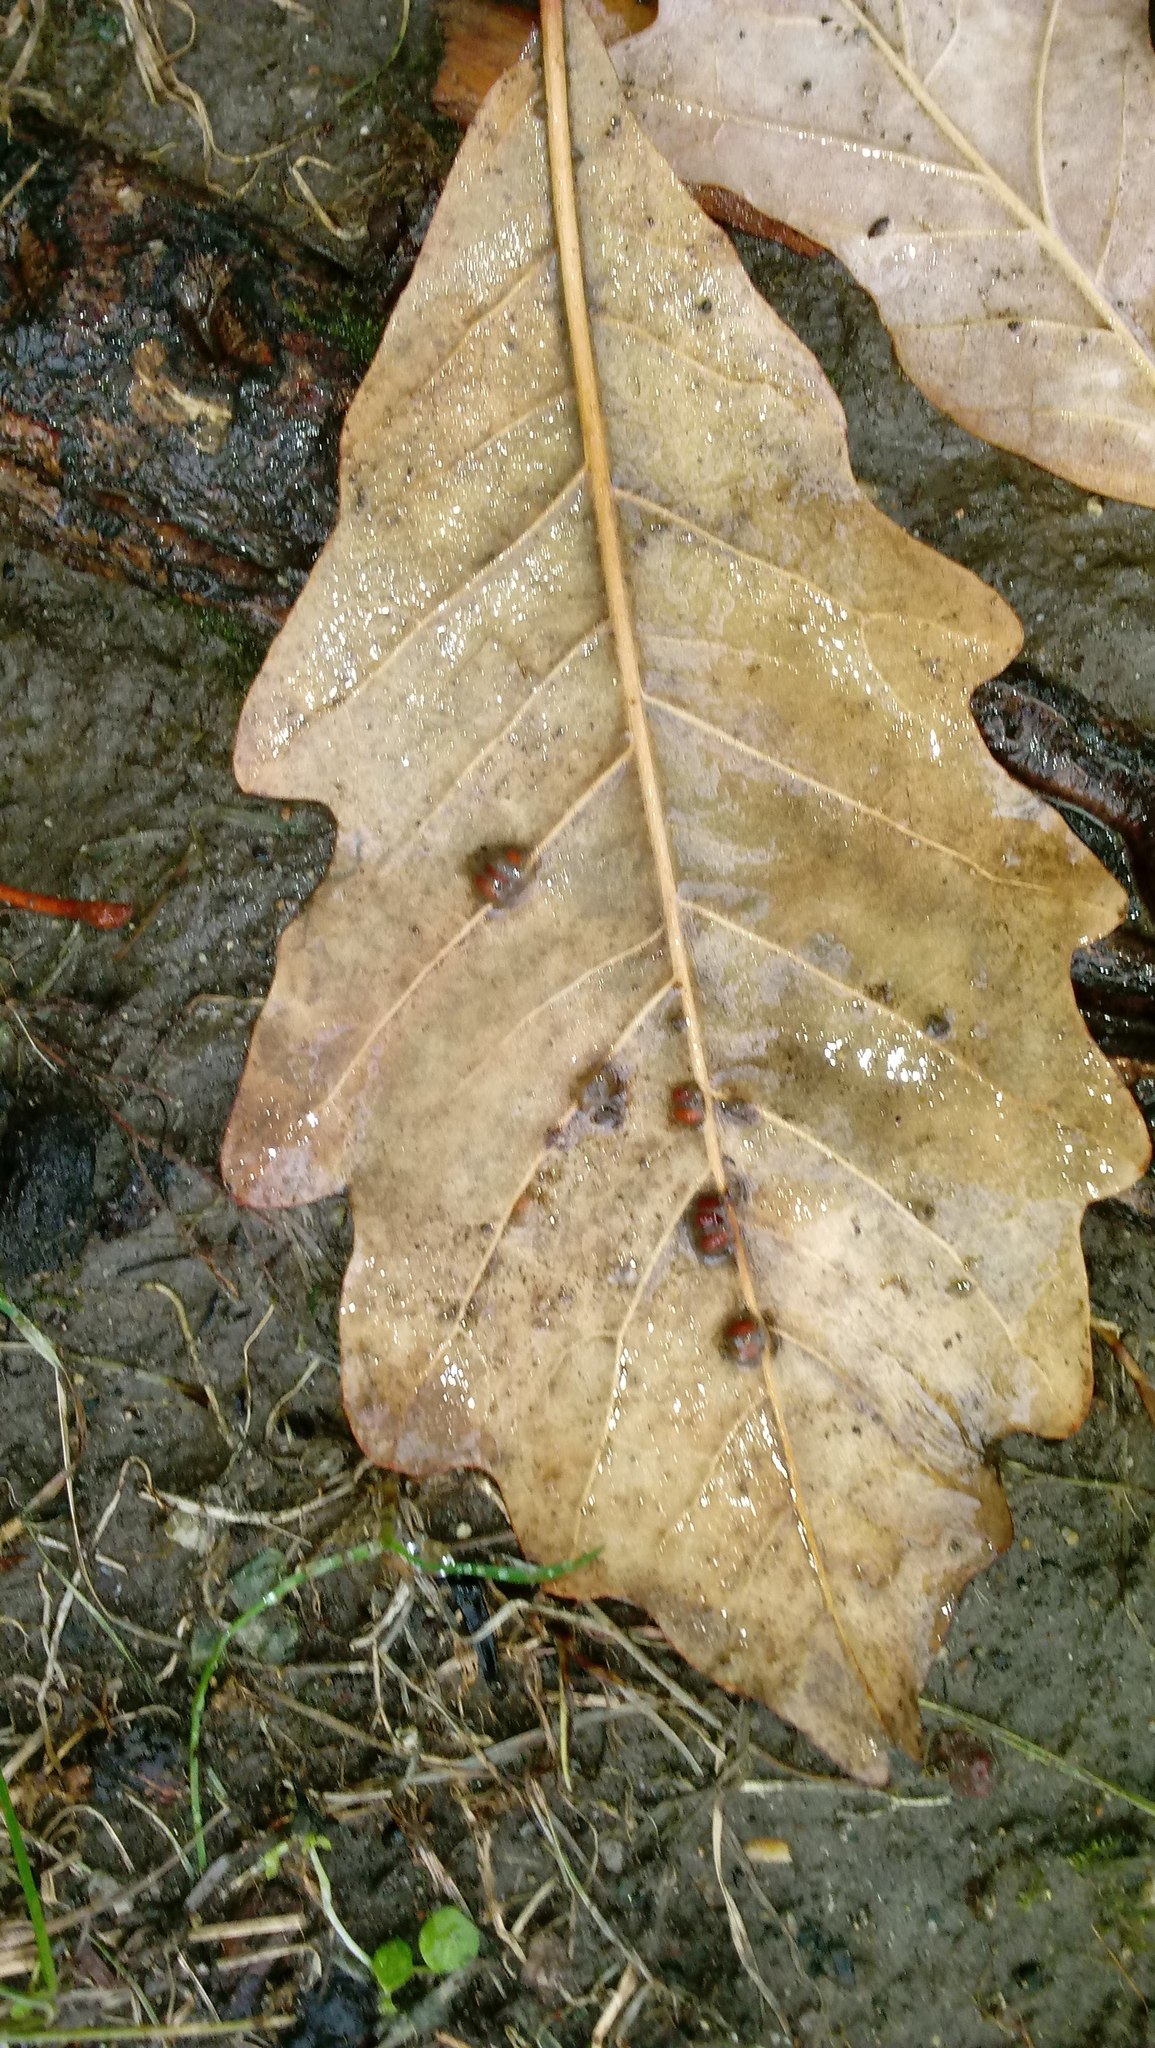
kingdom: Animalia
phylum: Arthropoda
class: Insecta
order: Hymenoptera
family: Cynipidae
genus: Andricus
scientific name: Andricus Druon ignotum
